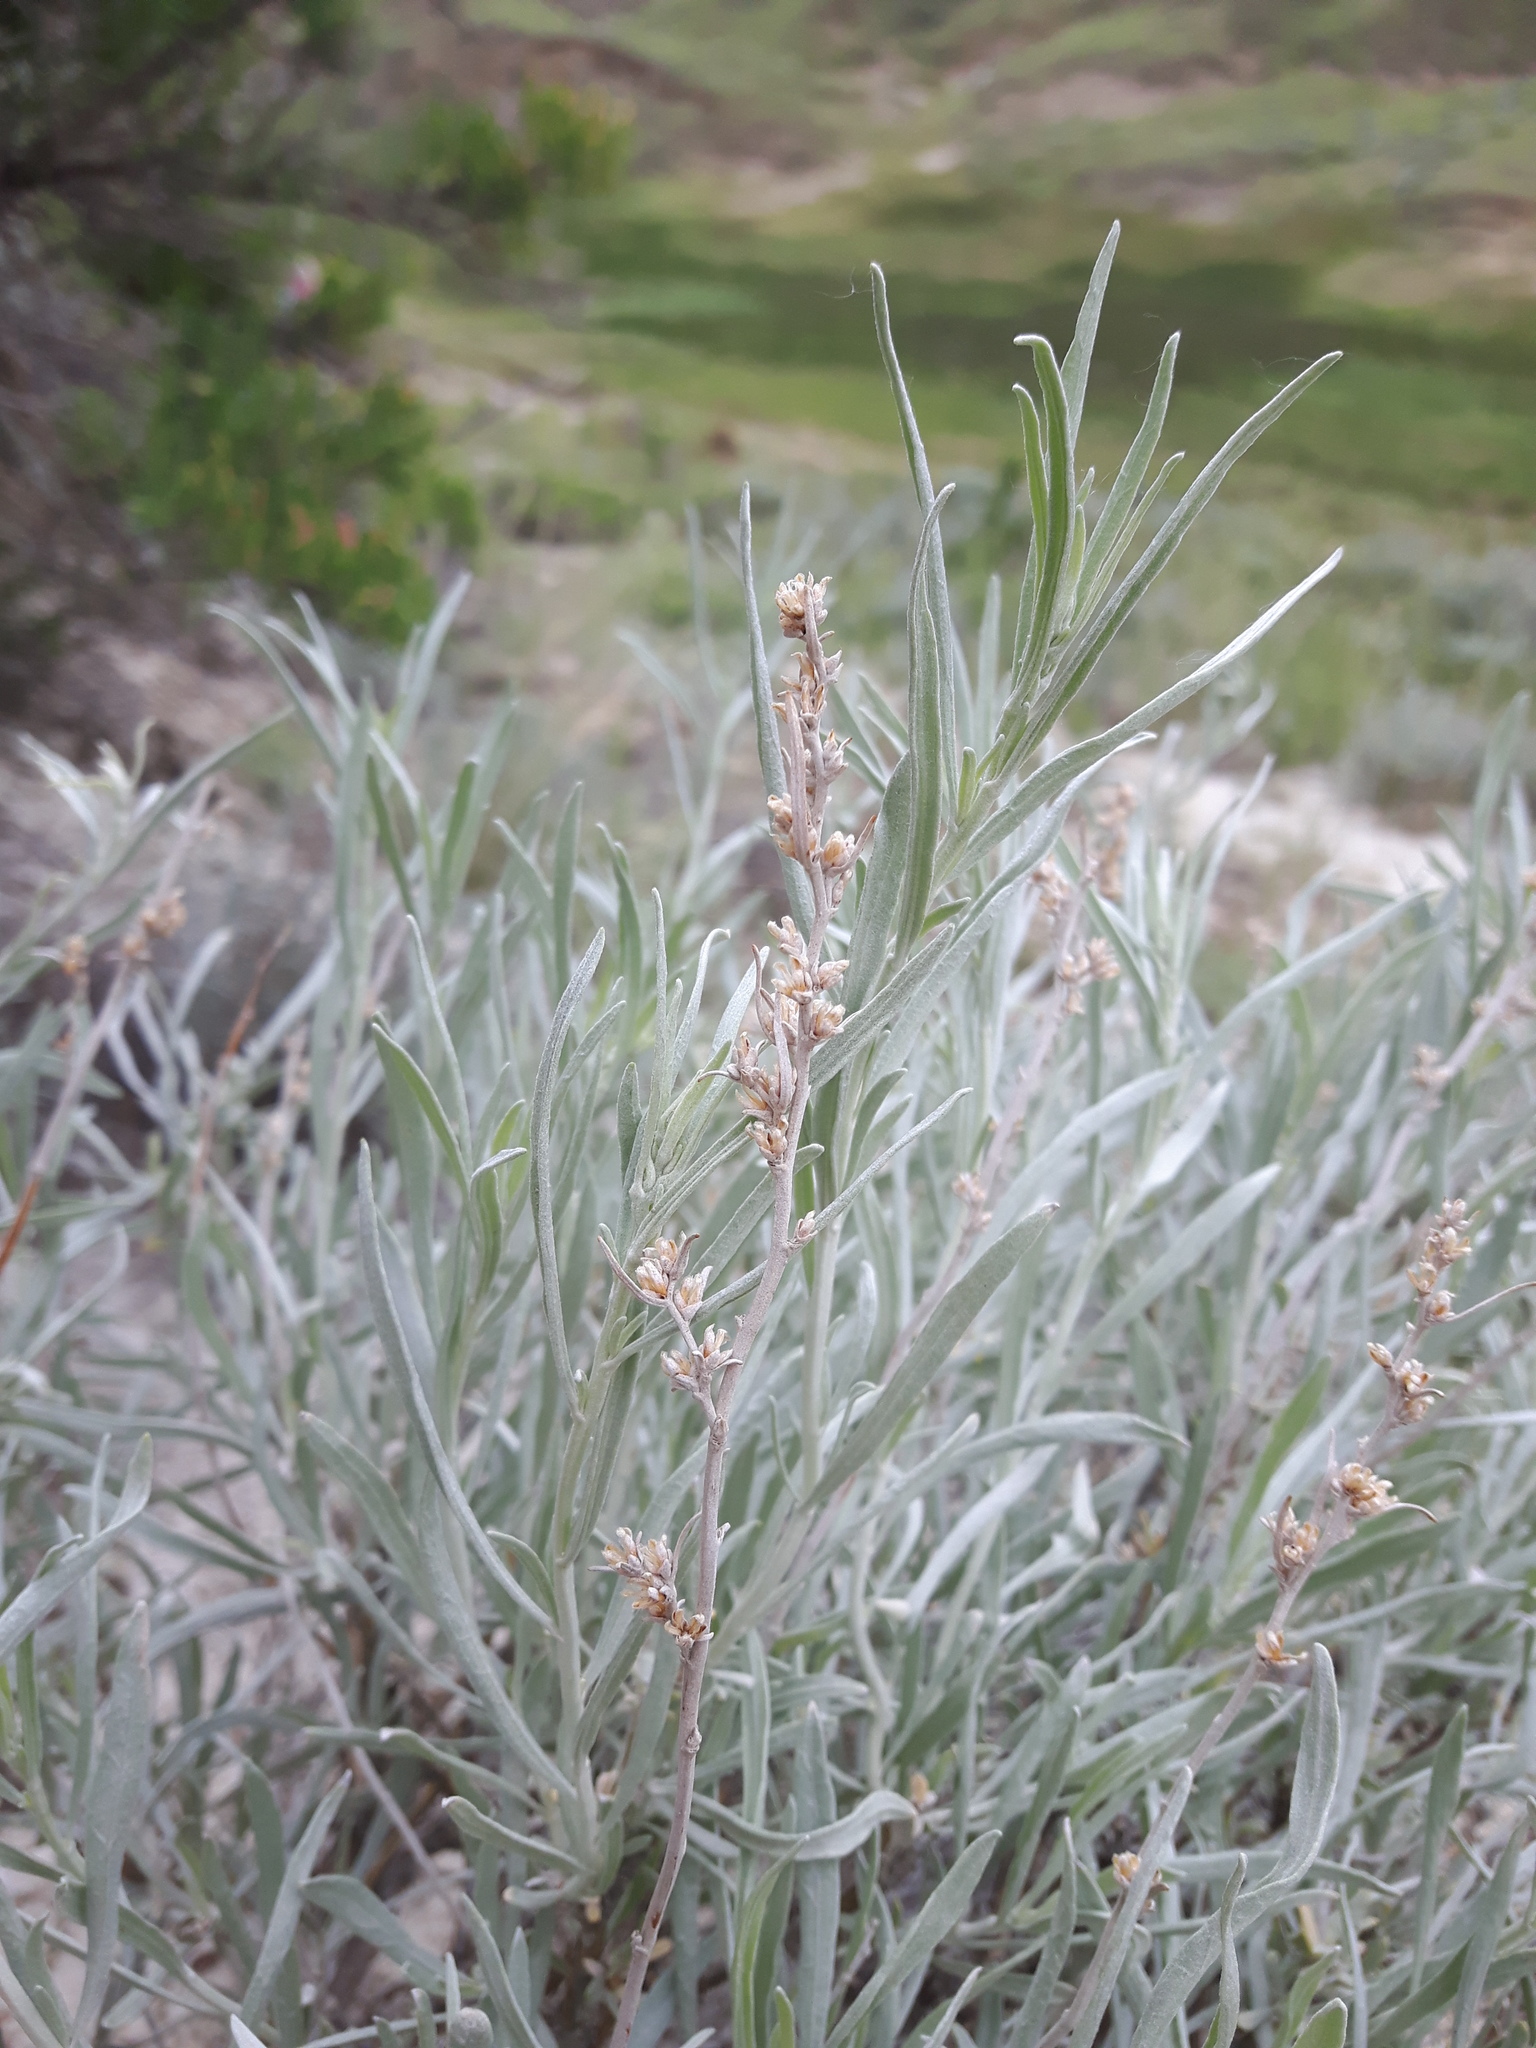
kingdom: Plantae
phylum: Tracheophyta
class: Magnoliopsida
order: Asterales
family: Asteraceae
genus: Artemisia
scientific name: Artemisia cana
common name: Silver sagebrush
